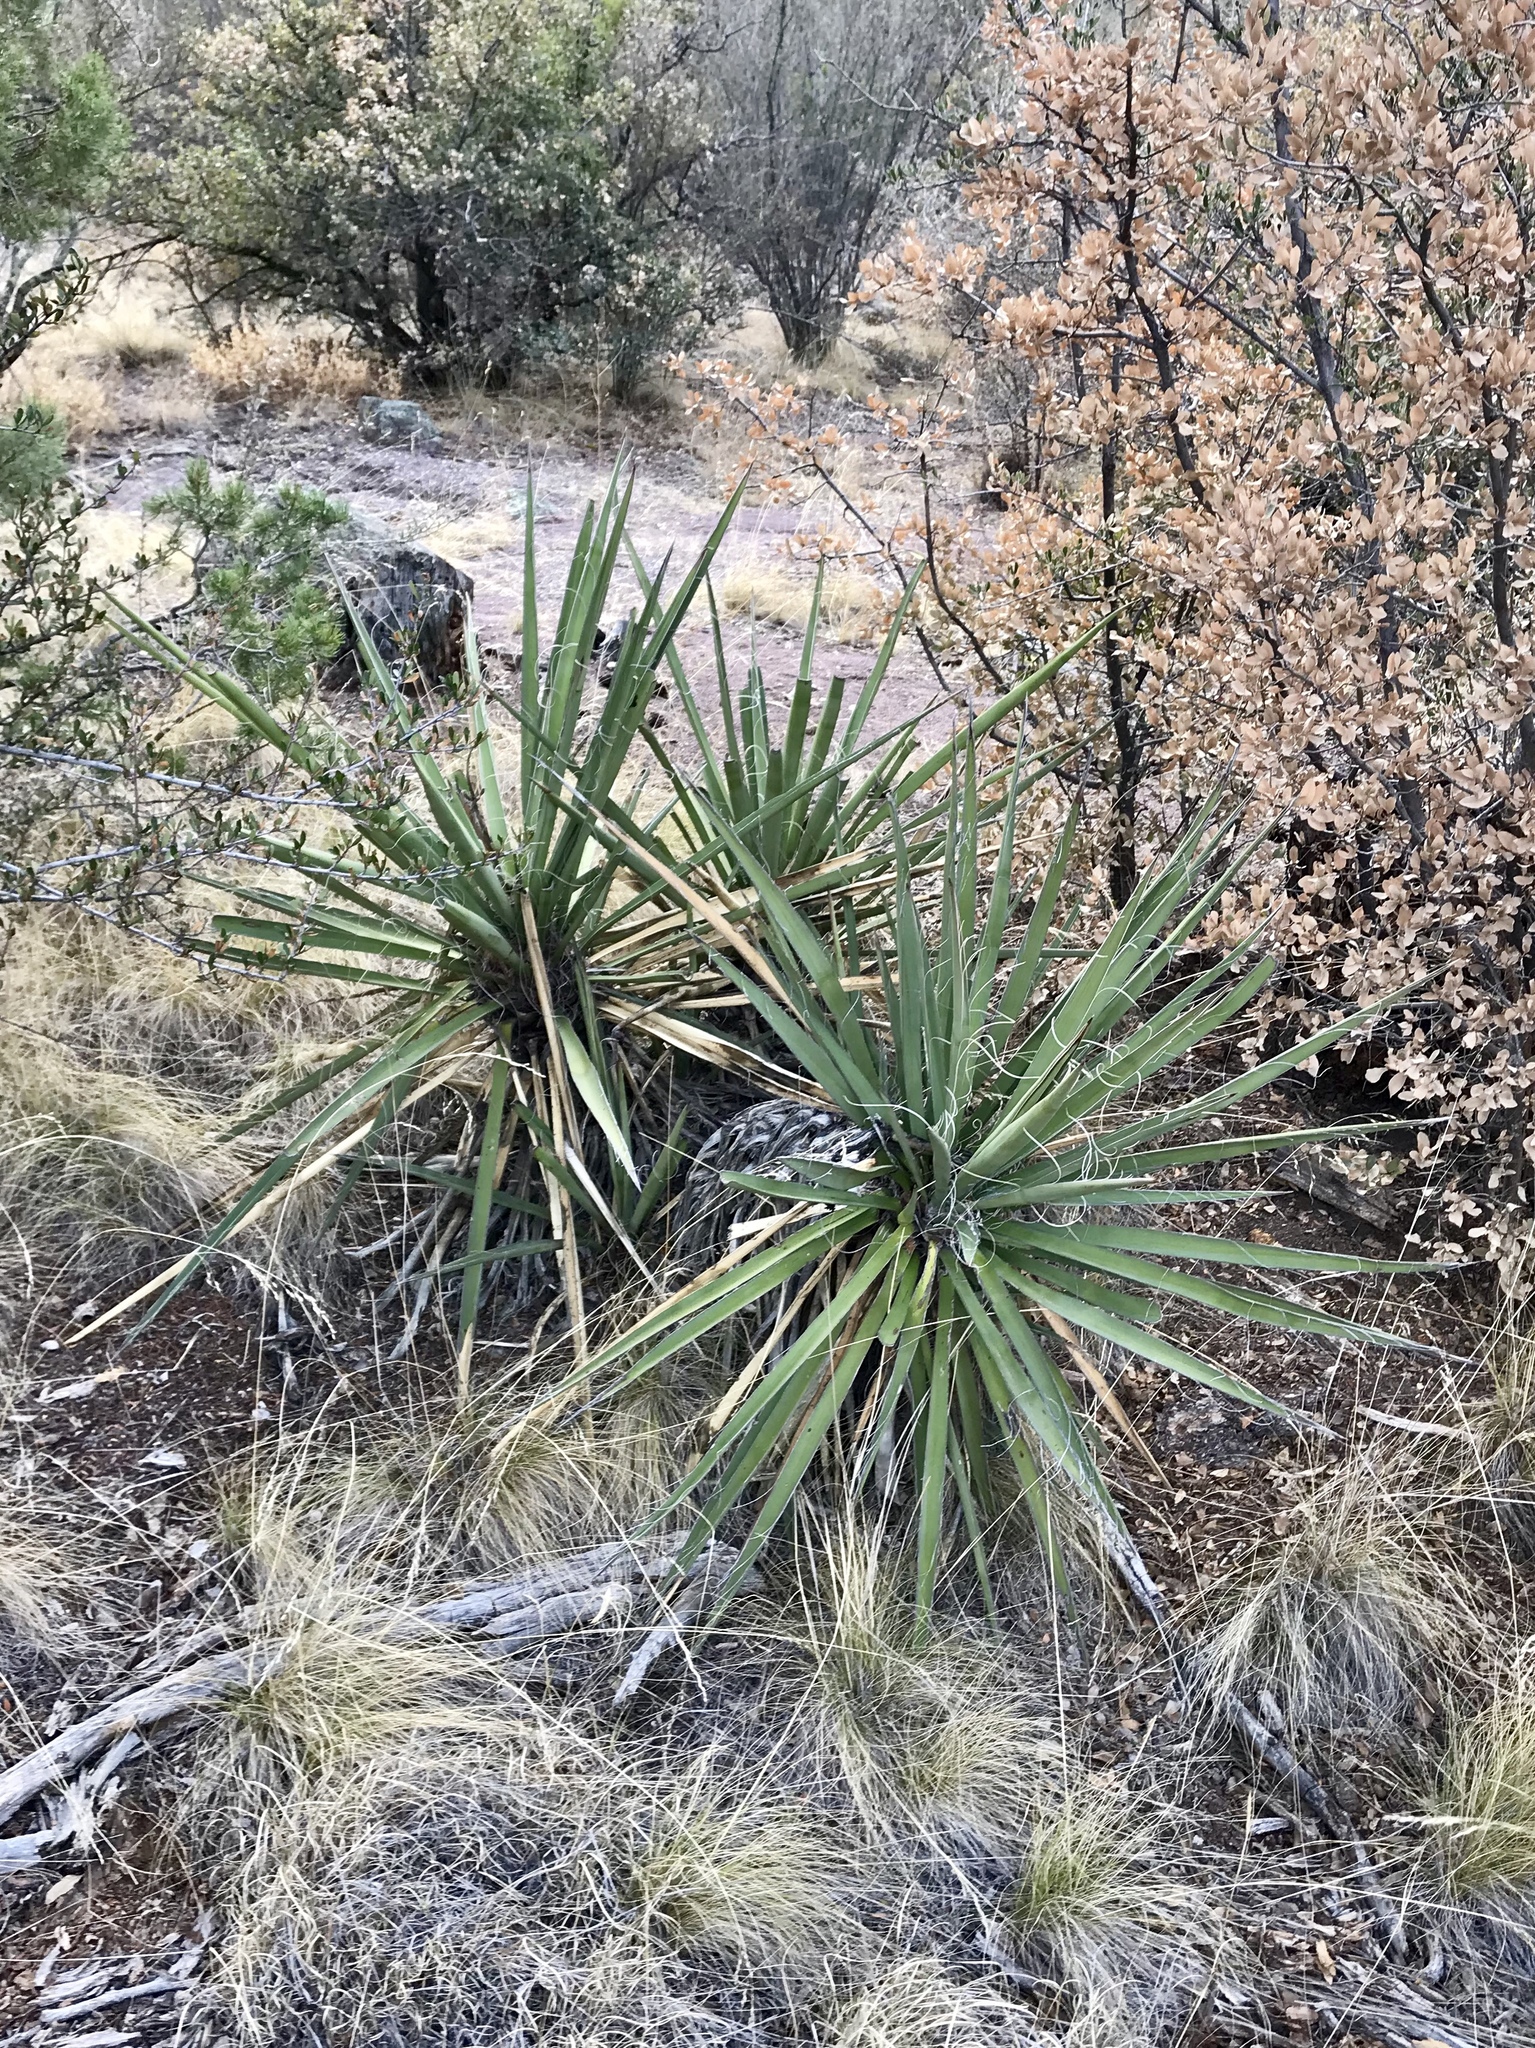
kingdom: Plantae
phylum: Tracheophyta
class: Liliopsida
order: Asparagales
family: Asparagaceae
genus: Yucca
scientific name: Yucca baccata
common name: Banana yucca
